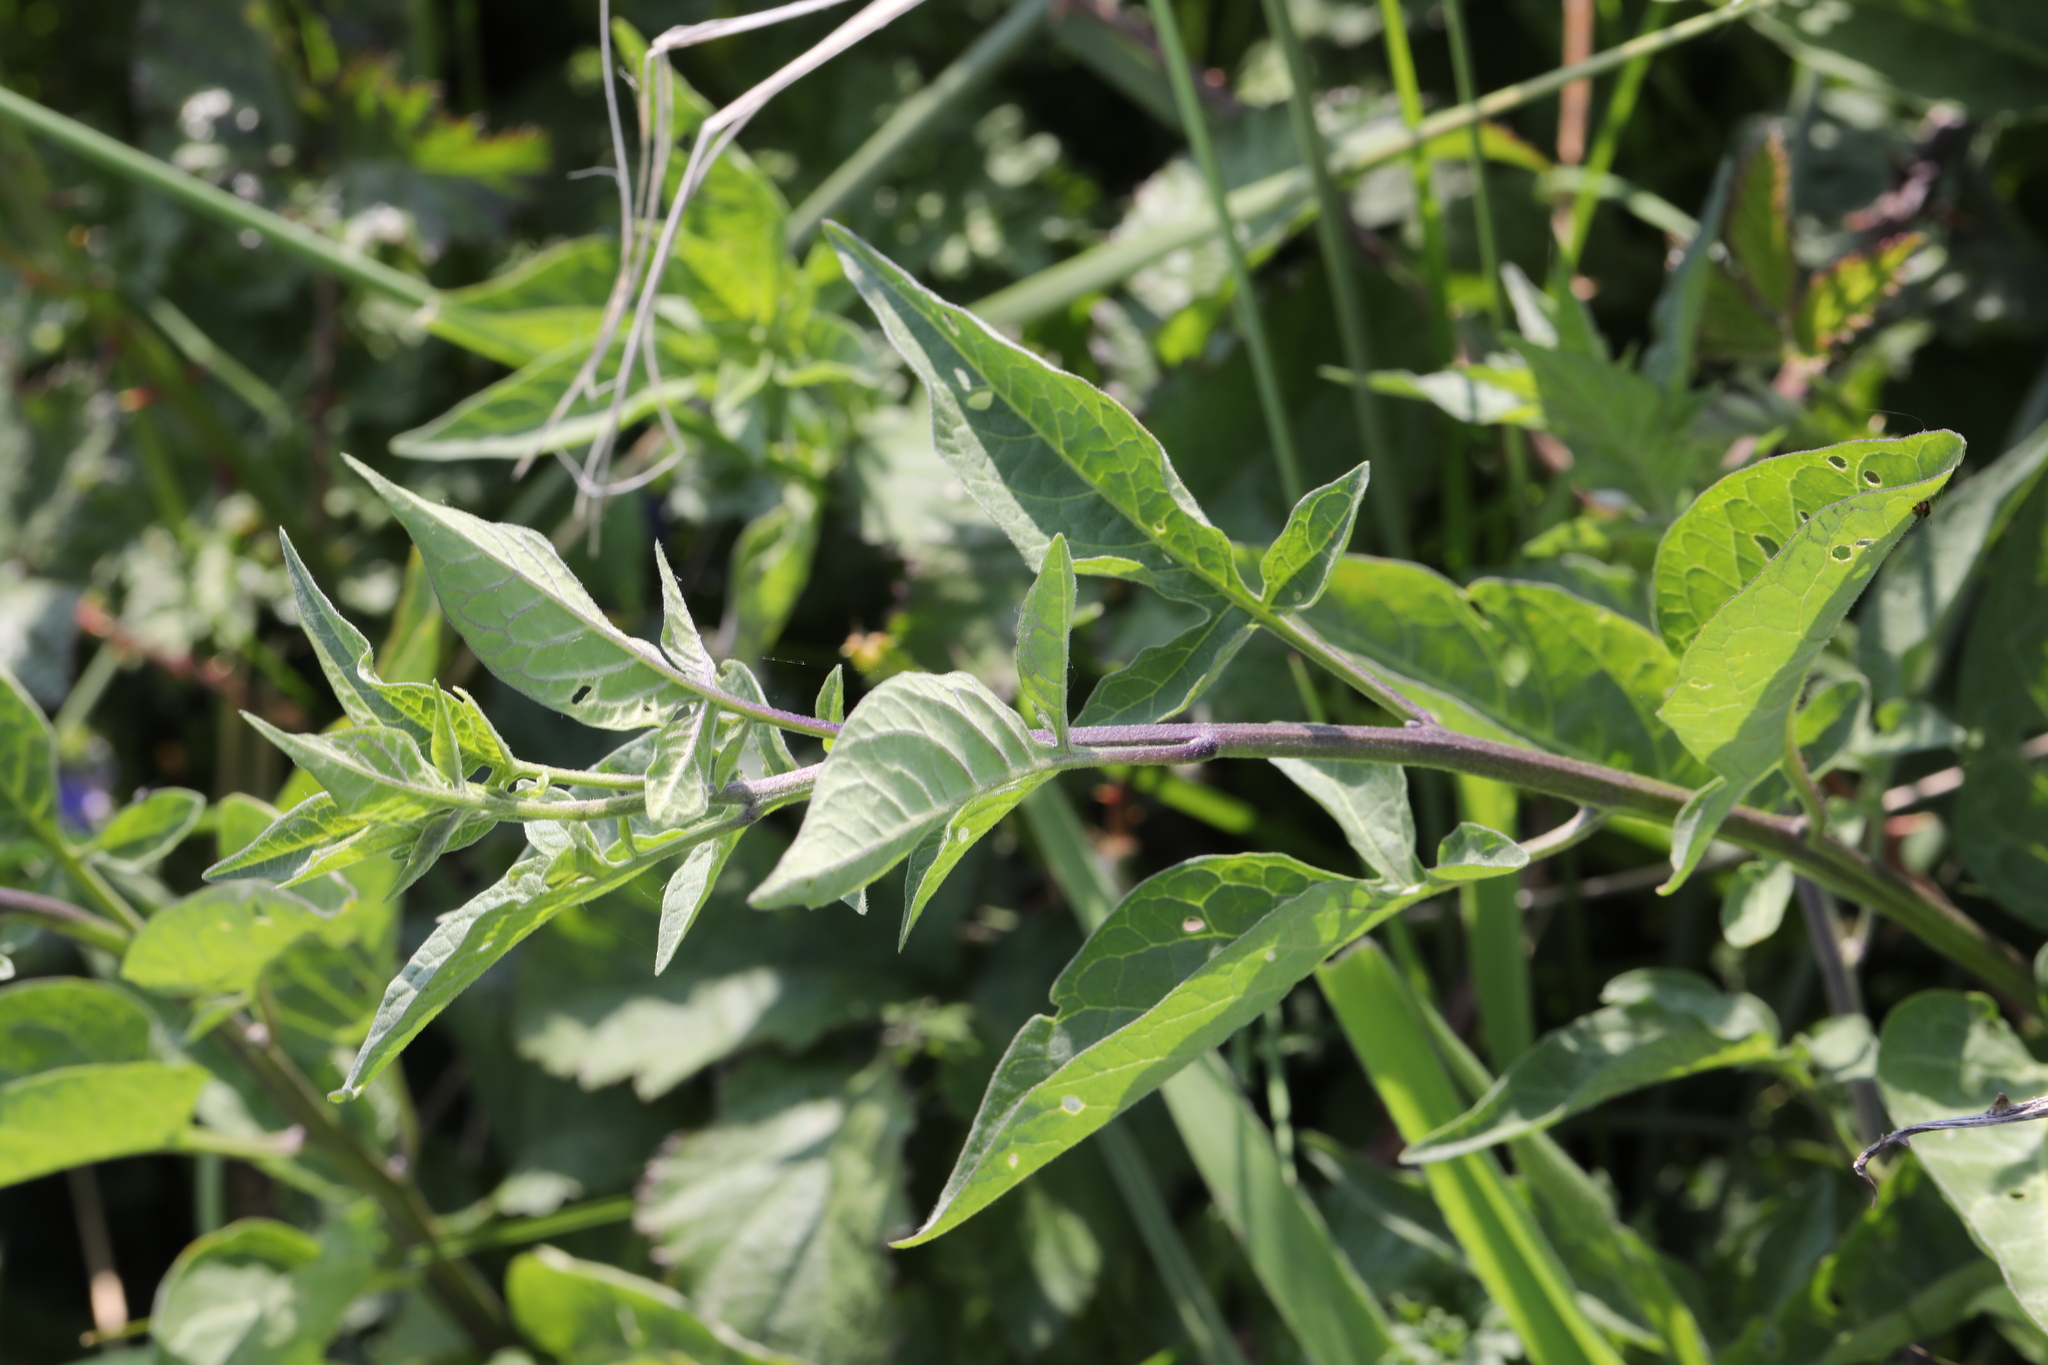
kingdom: Plantae
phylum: Tracheophyta
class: Magnoliopsida
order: Solanales
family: Solanaceae
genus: Solanum
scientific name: Solanum dulcamara
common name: Climbing nightshade
